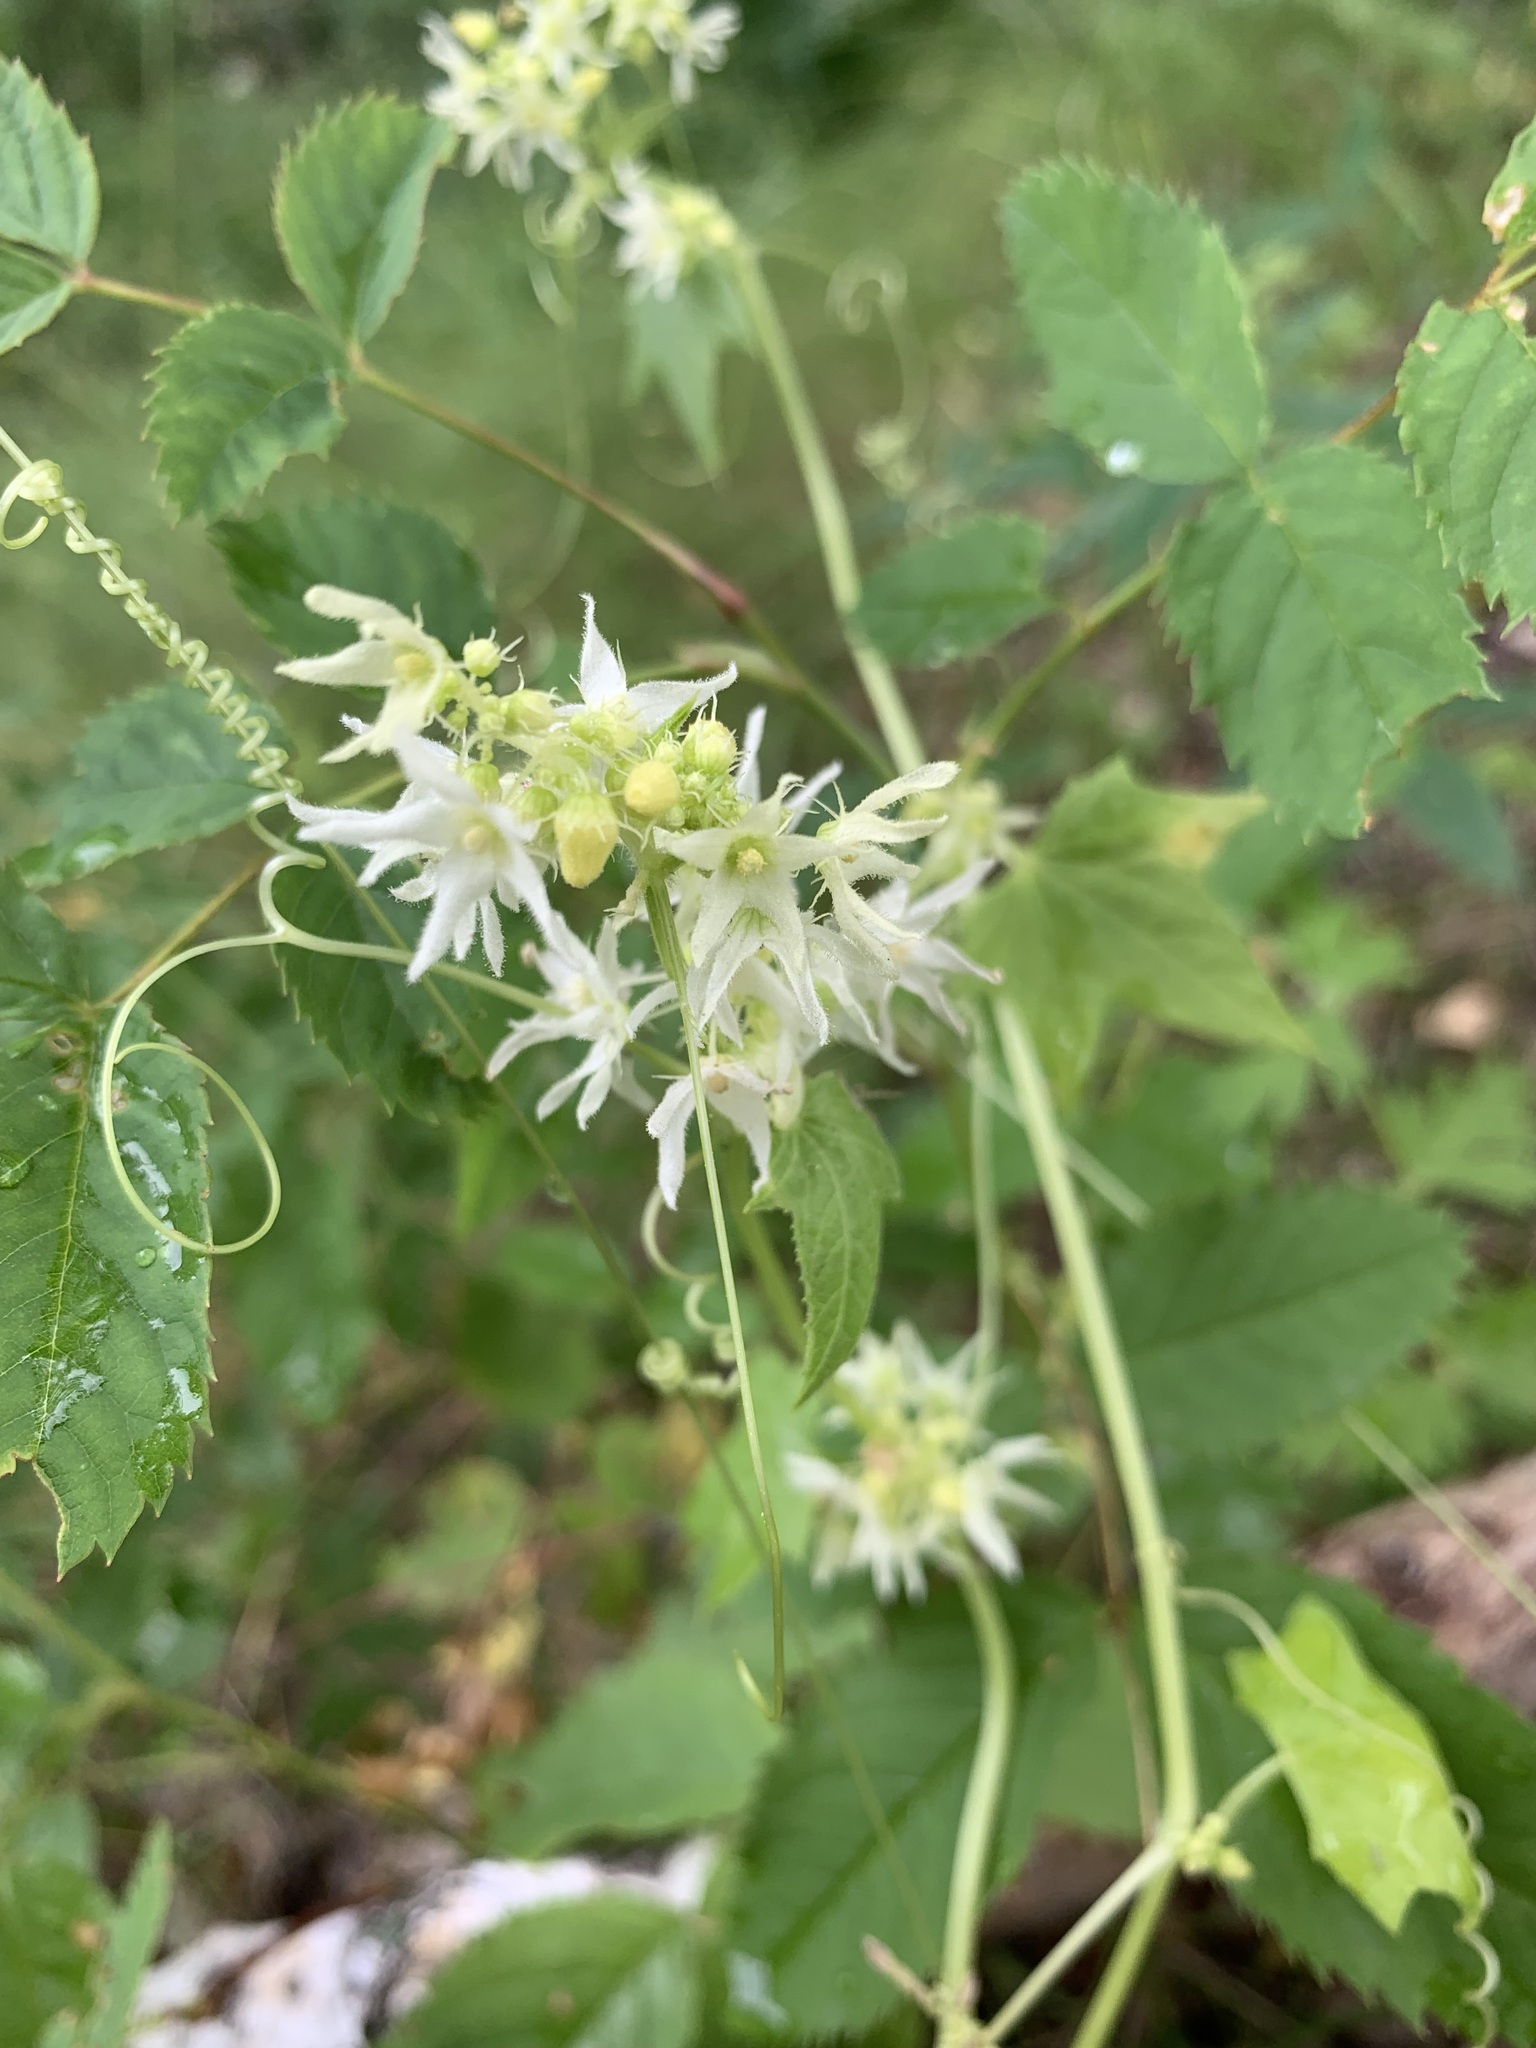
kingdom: Plantae
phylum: Tracheophyta
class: Magnoliopsida
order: Cucurbitales
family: Cucurbitaceae
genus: Echinocystis
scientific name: Echinocystis lobata
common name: Wild cucumber
